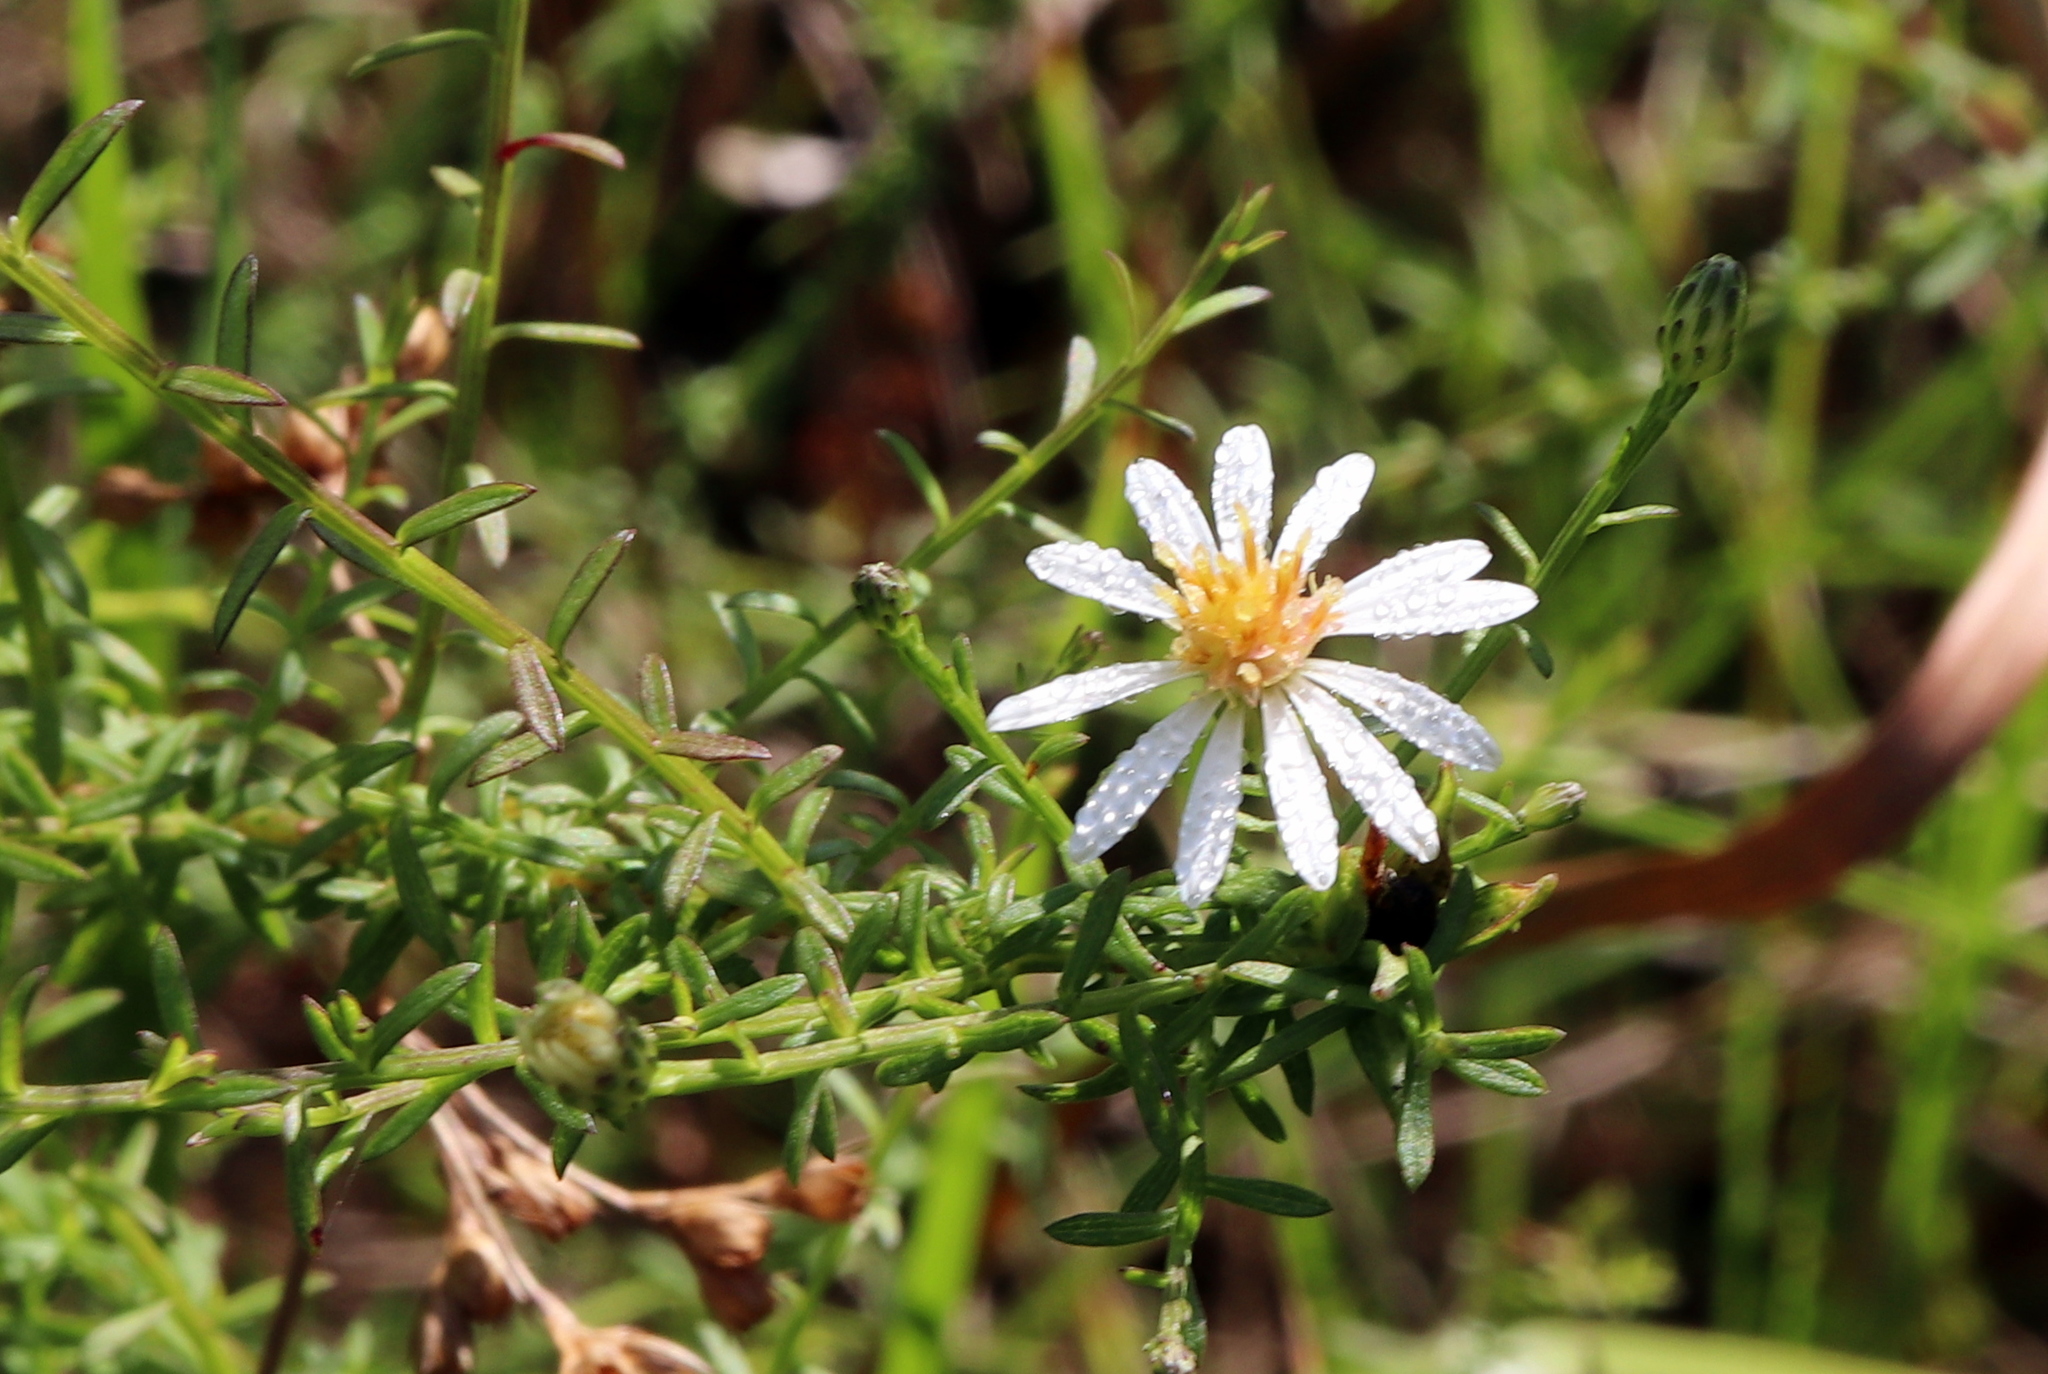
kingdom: Plantae
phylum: Tracheophyta
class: Magnoliopsida
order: Asterales
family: Asteraceae
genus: Symphyotrichum
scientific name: Symphyotrichum dumosum
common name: Bushy aster
